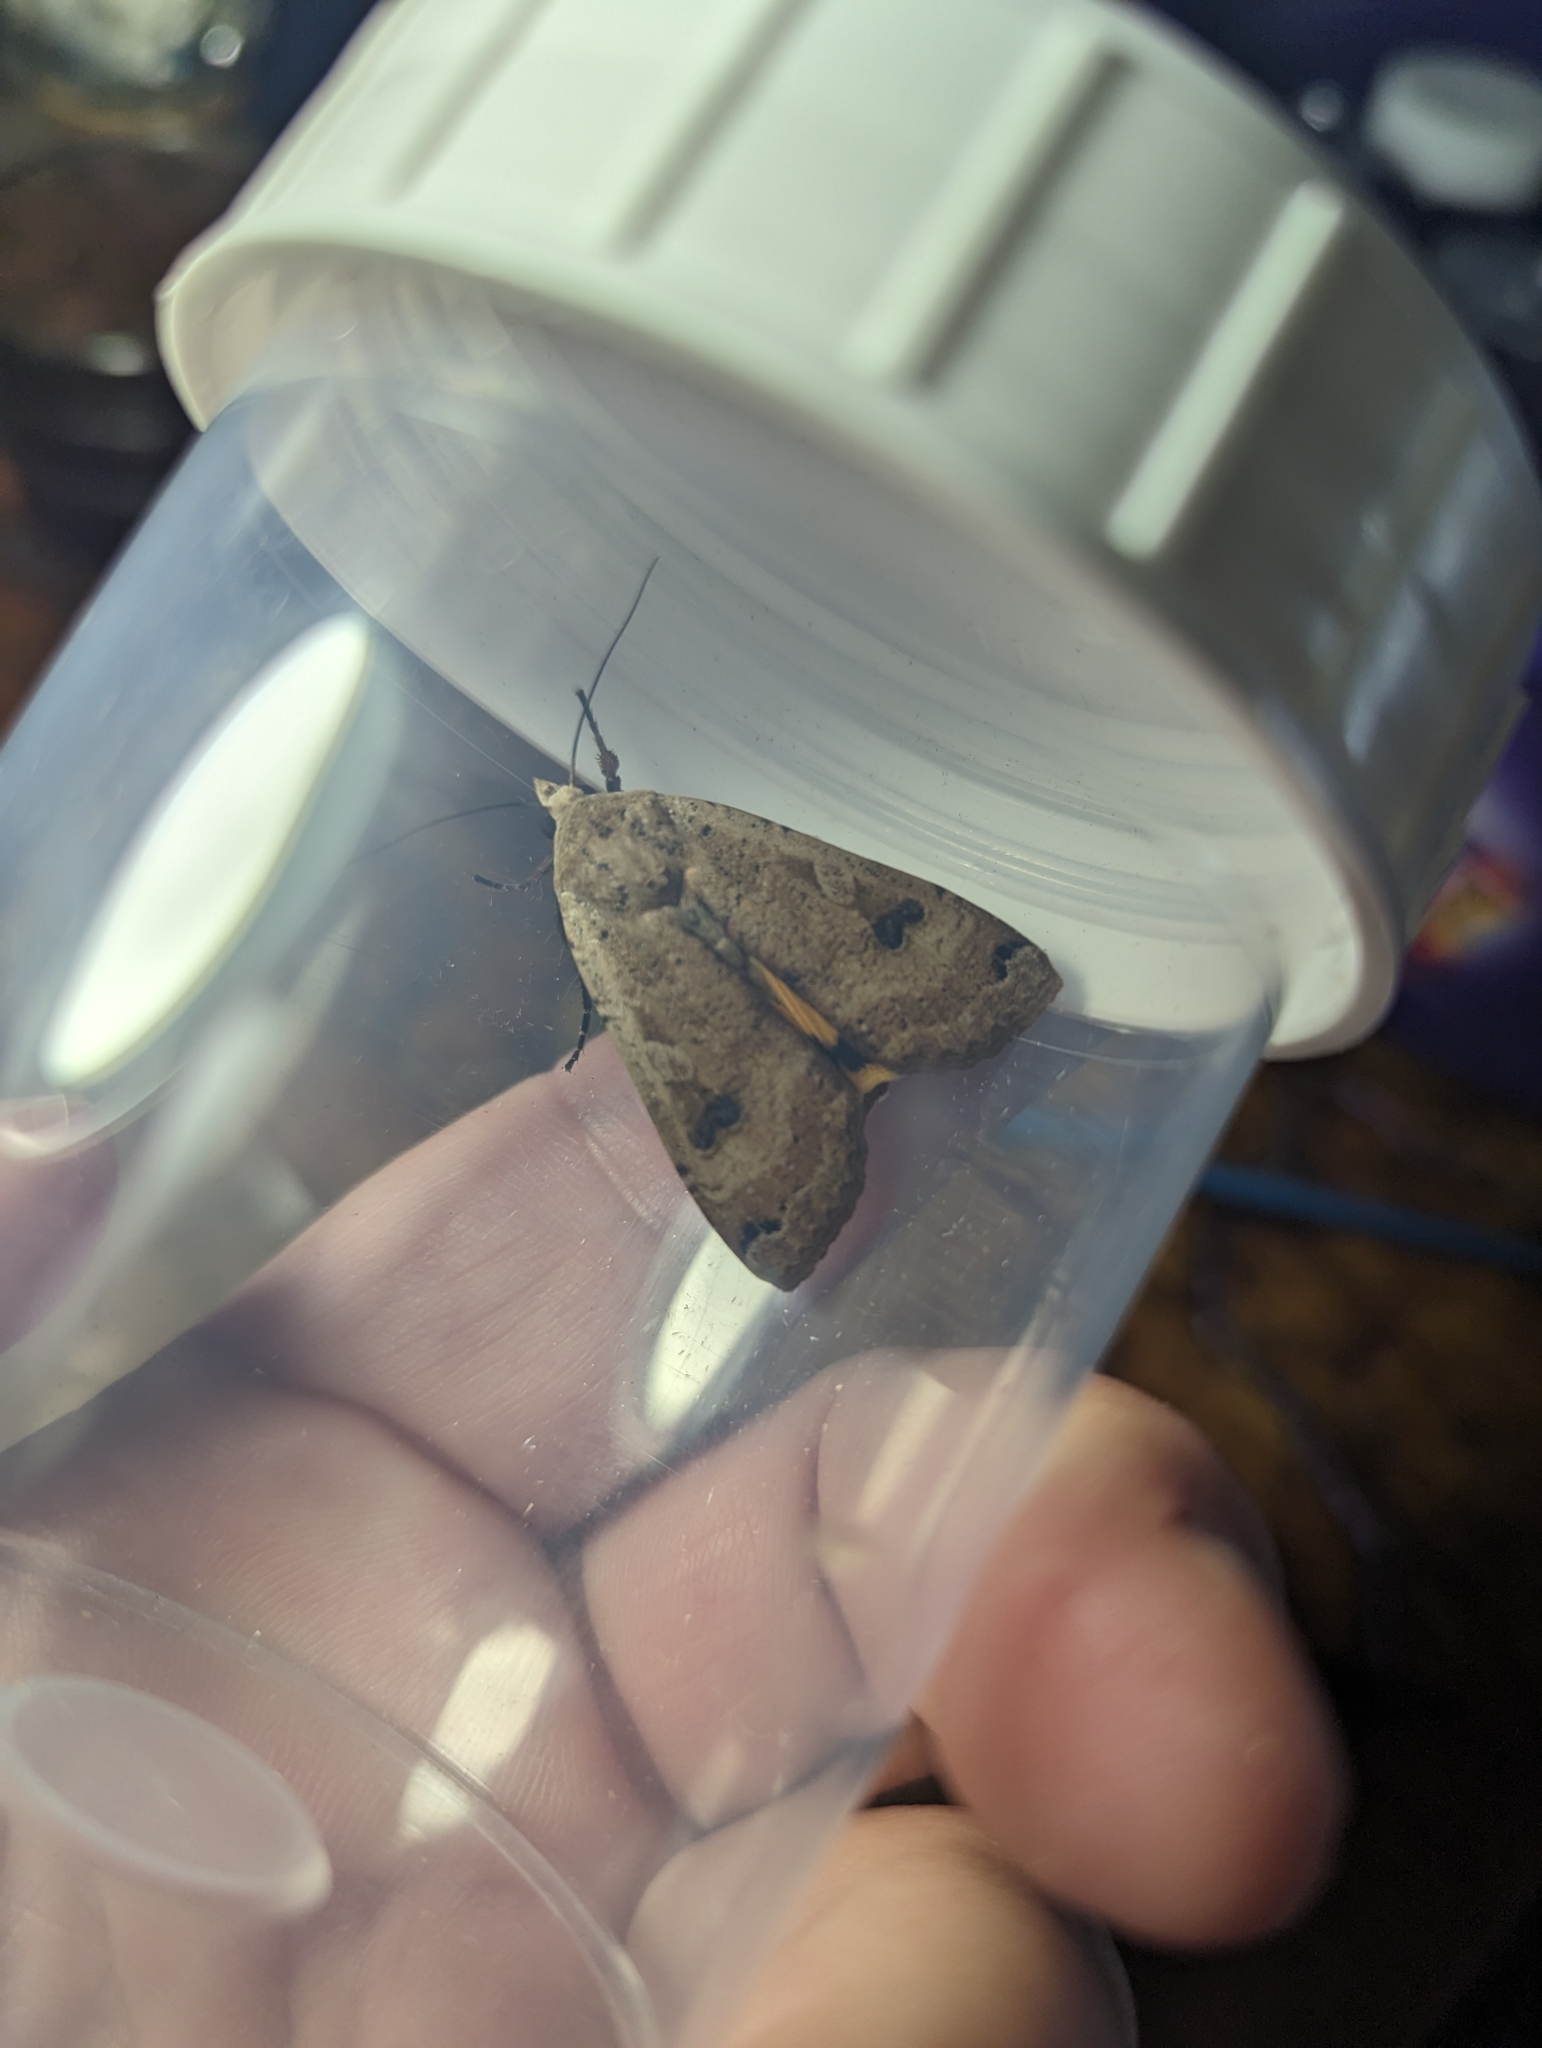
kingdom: Animalia
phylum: Arthropoda
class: Insecta
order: Lepidoptera
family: Noctuidae
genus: Noctua
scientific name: Noctua pronuba
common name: Large yellow underwing
